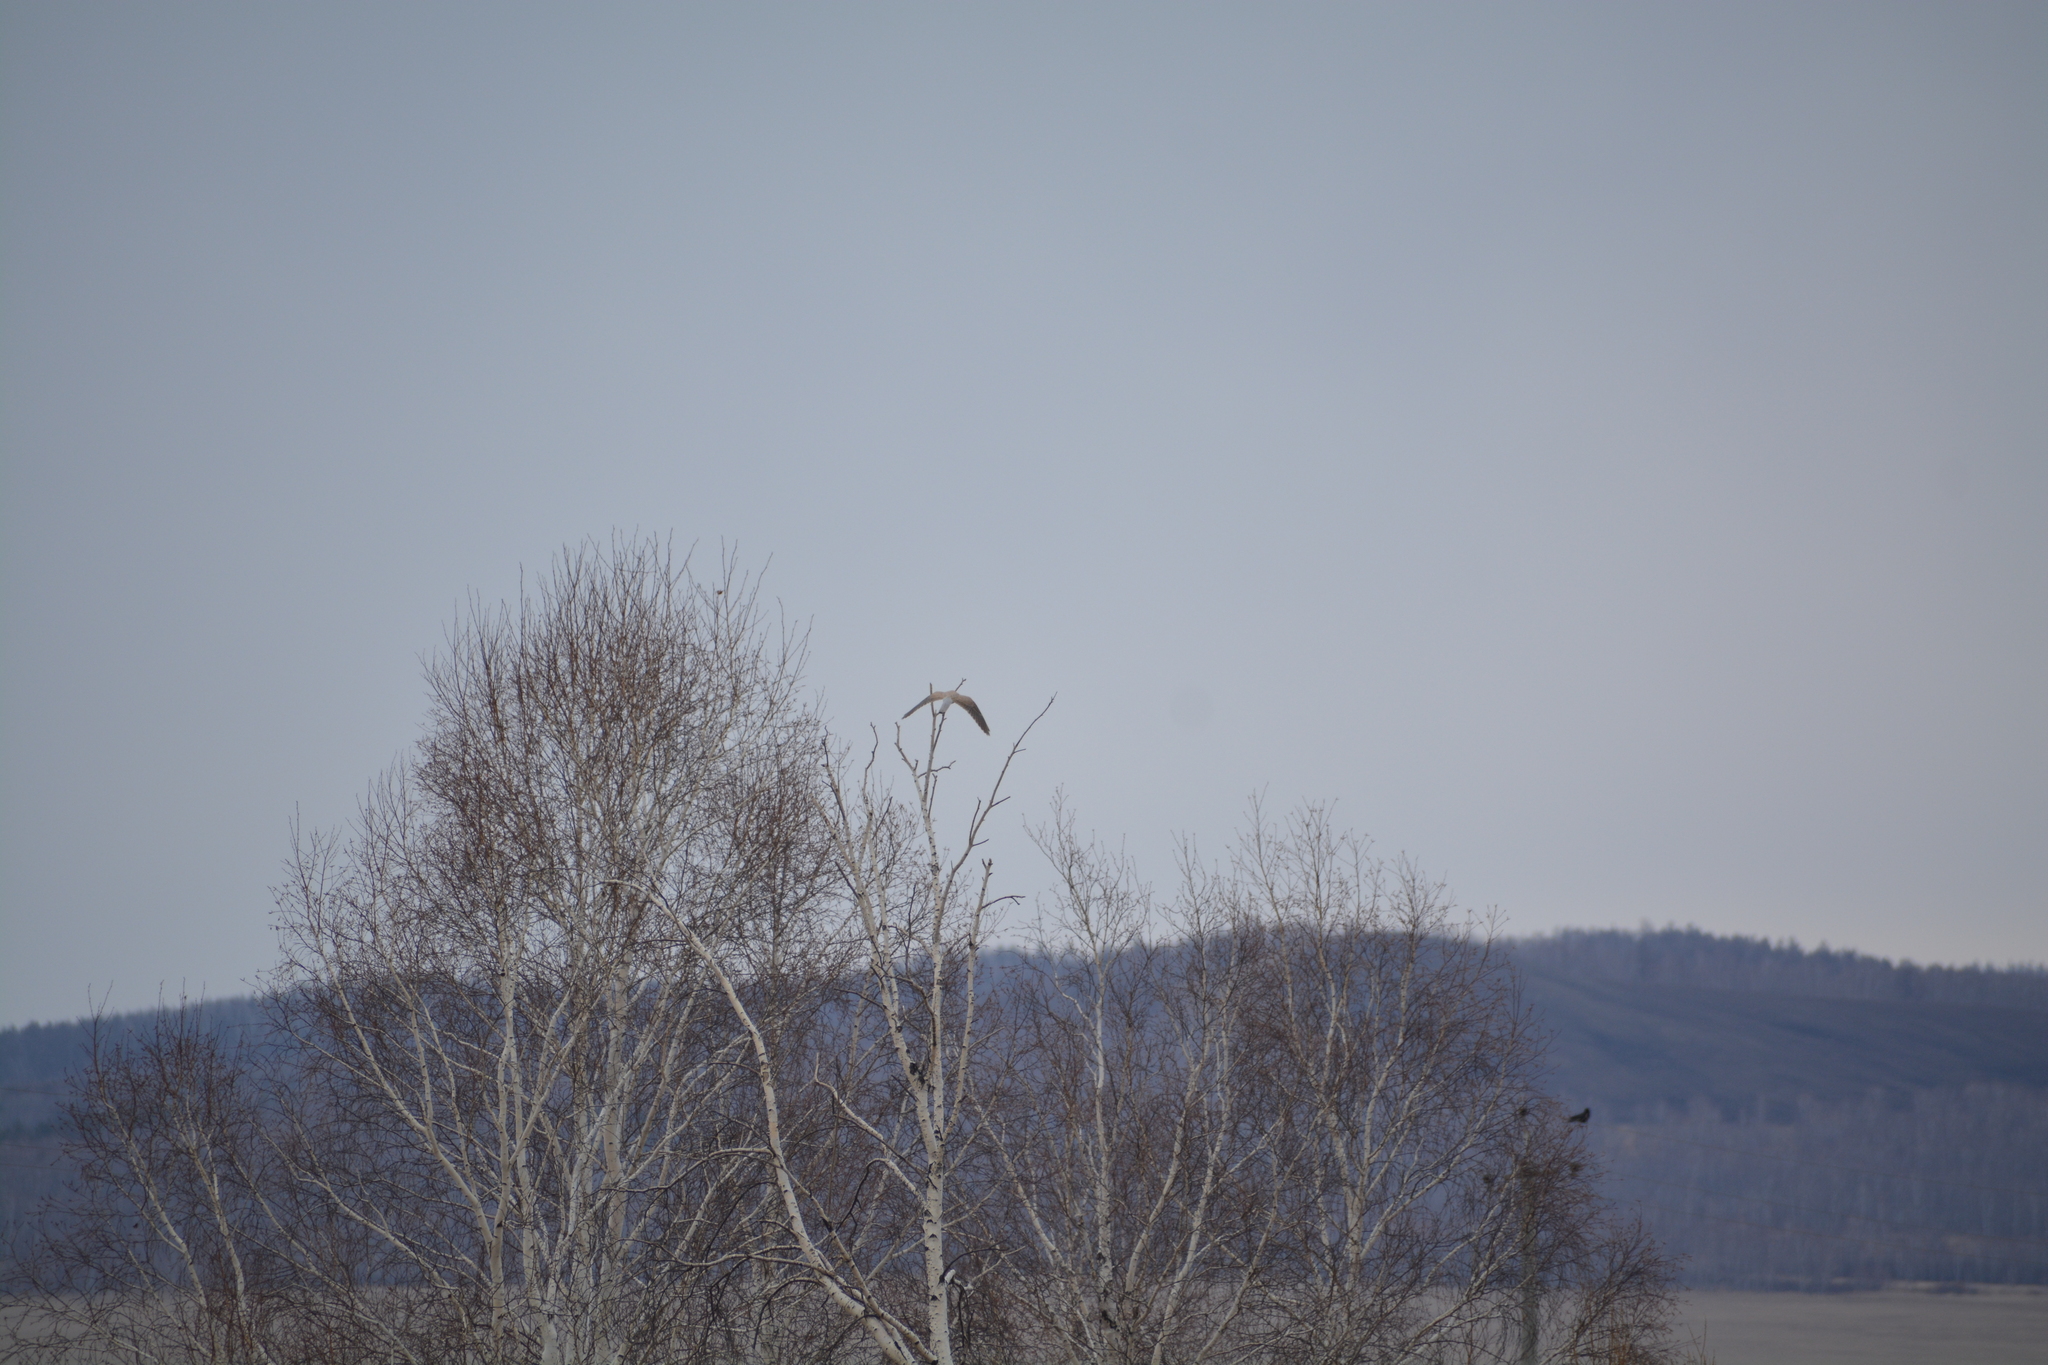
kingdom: Animalia
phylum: Chordata
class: Aves
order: Falconiformes
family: Falconidae
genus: Falco
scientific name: Falco tinnunculus
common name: Common kestrel
